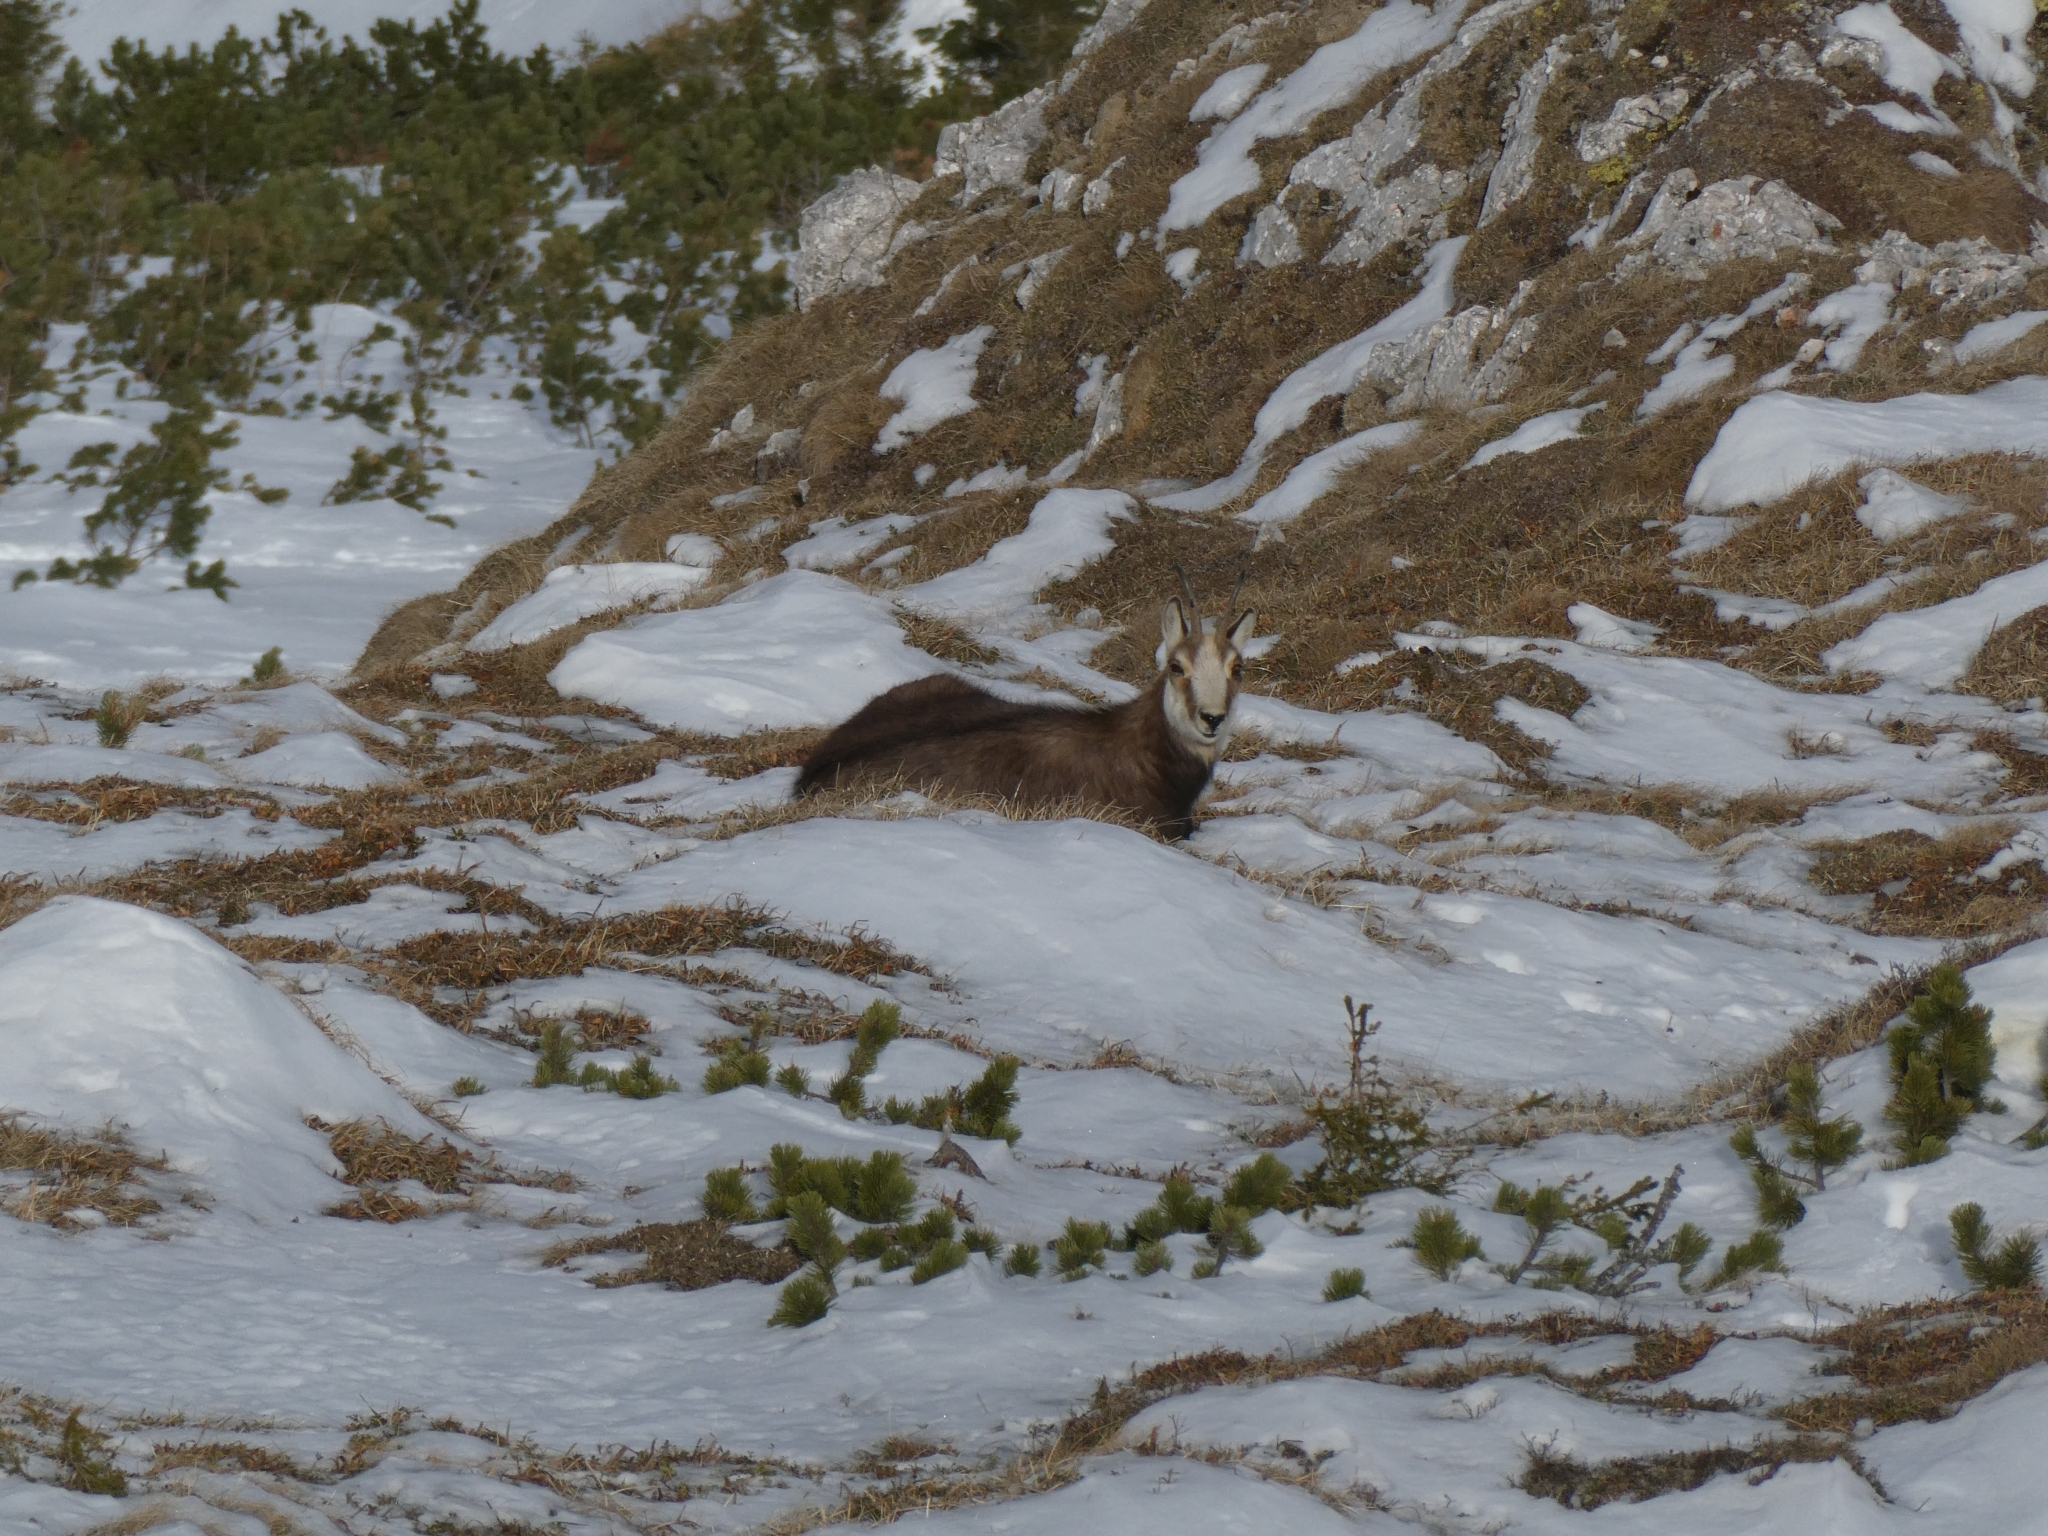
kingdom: Animalia
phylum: Chordata
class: Mammalia
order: Artiodactyla
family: Bovidae
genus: Rupicapra
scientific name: Rupicapra rupicapra
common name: Chamois
